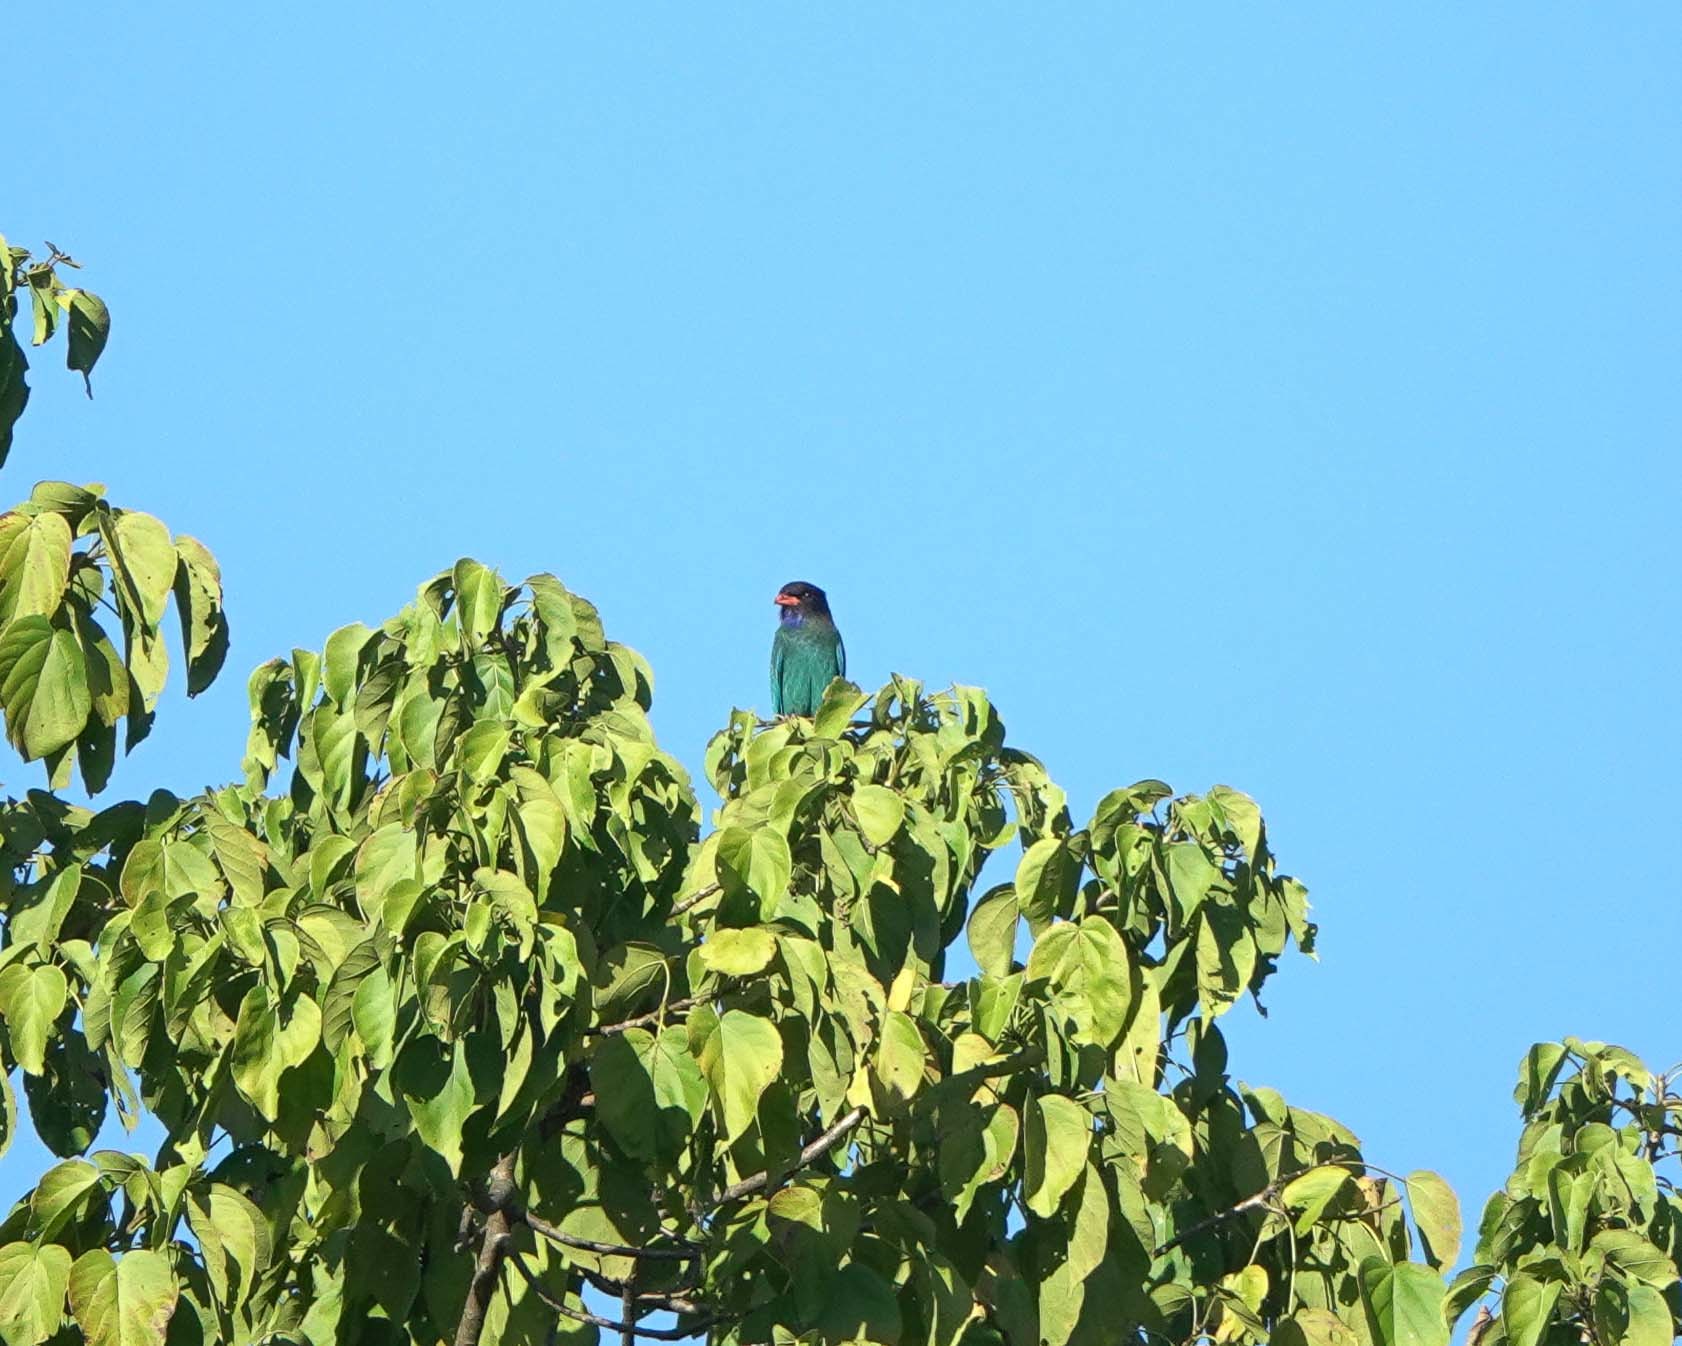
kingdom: Animalia
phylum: Chordata
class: Aves
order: Coraciiformes
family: Coraciidae
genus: Eurystomus
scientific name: Eurystomus orientalis
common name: Oriental dollarbird
